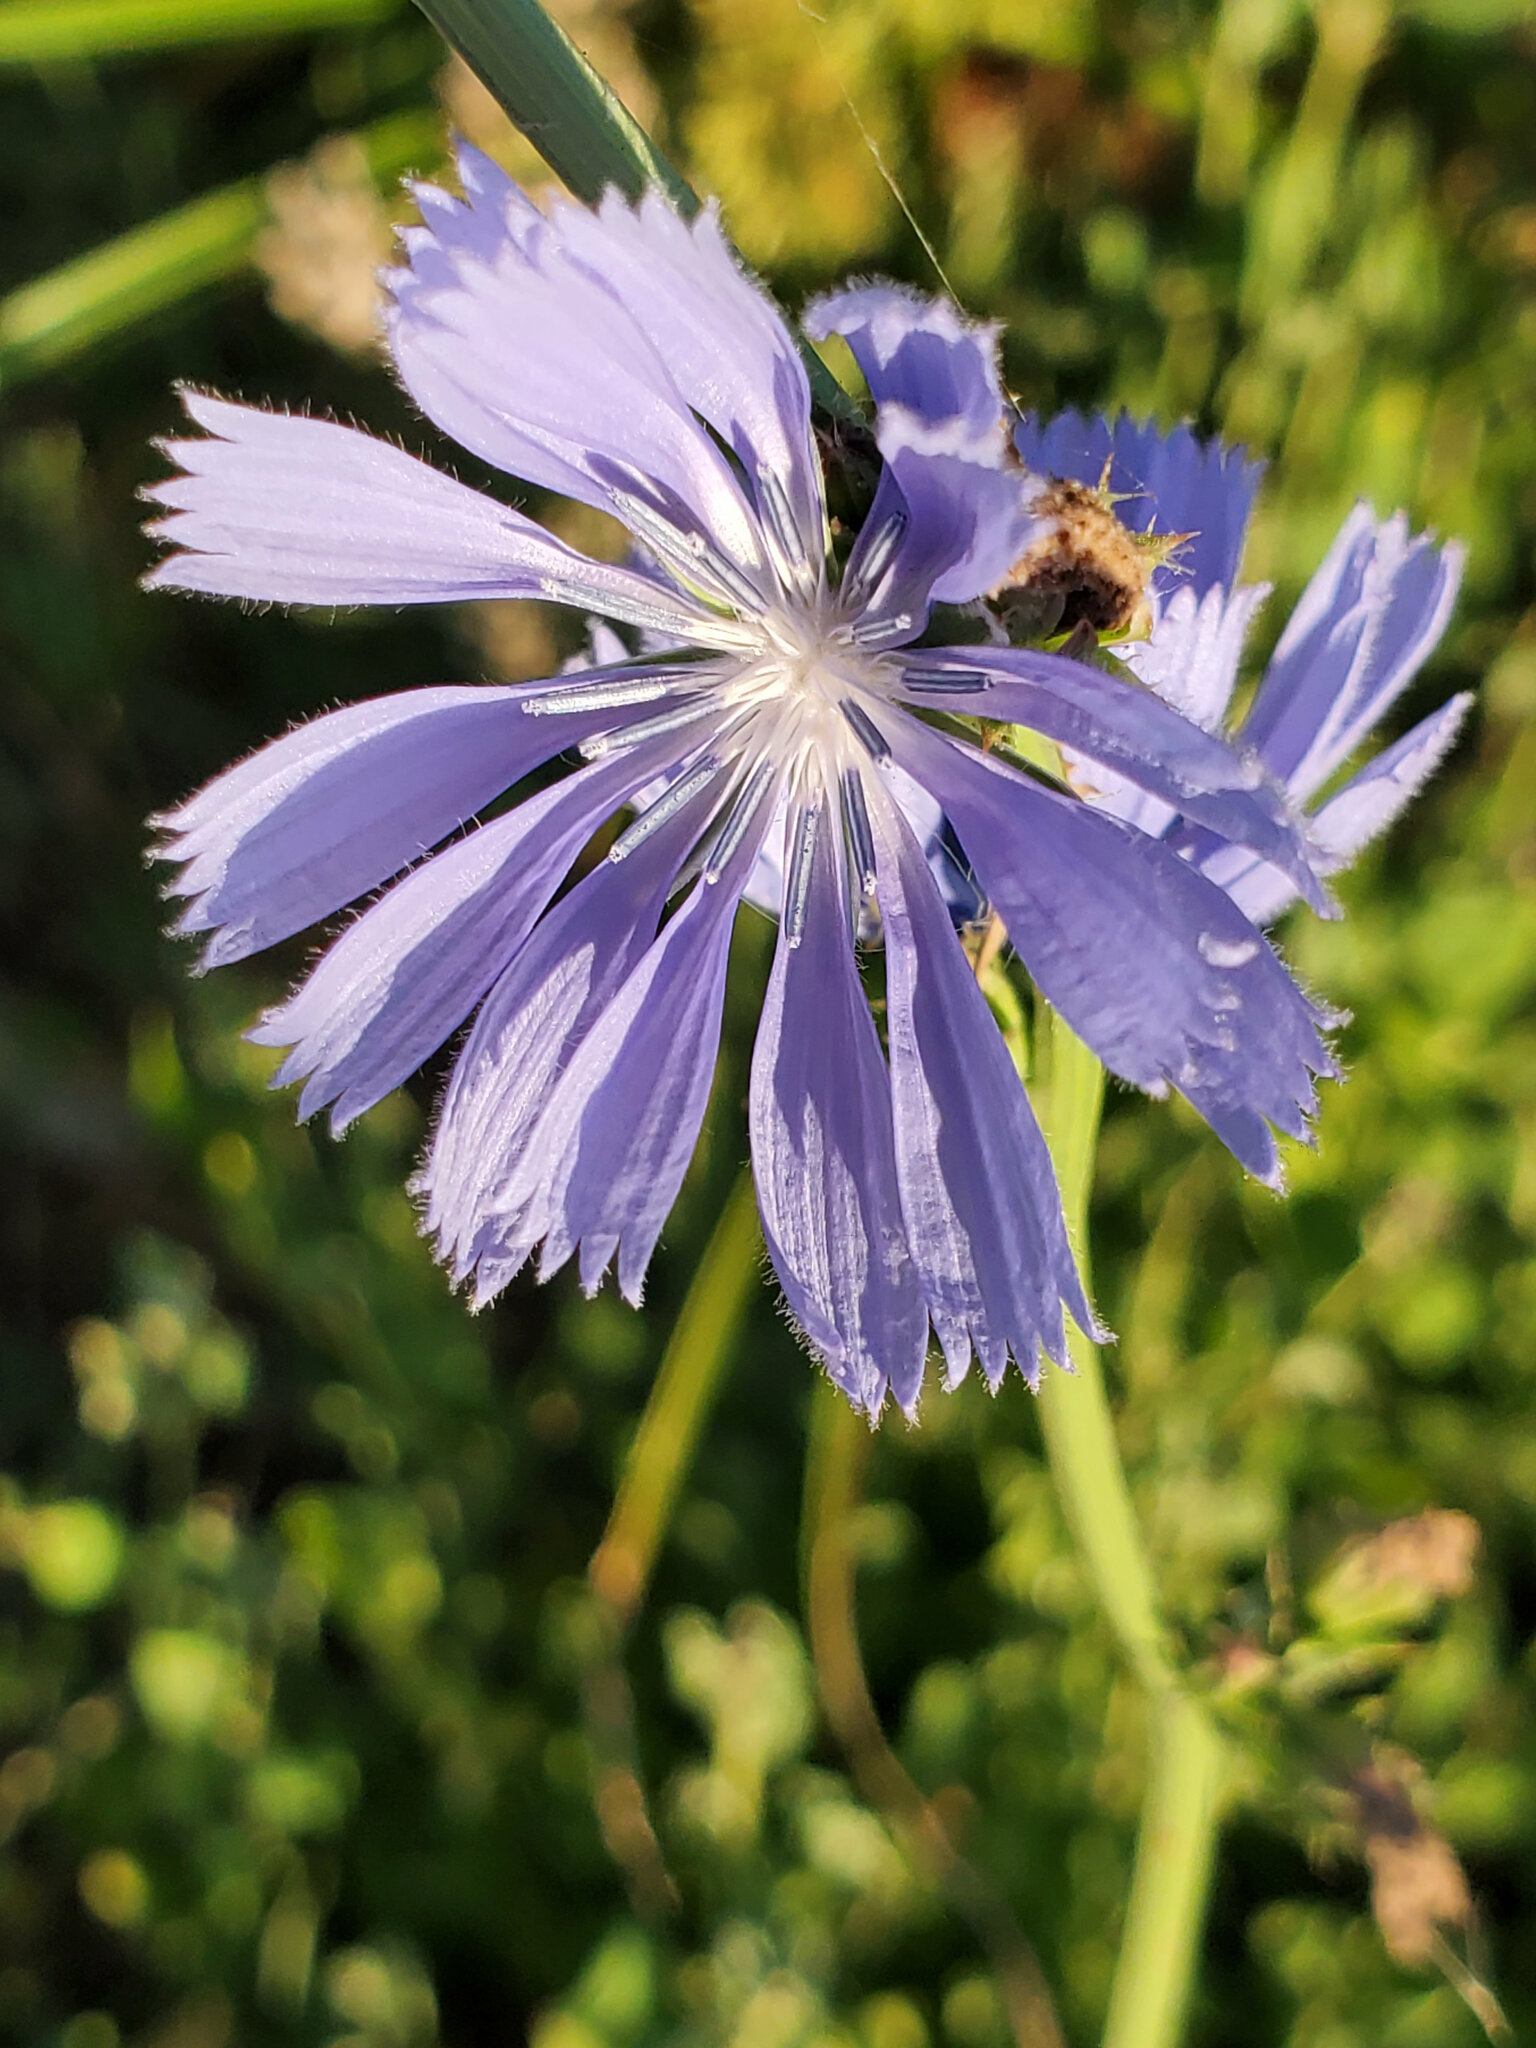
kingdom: Plantae
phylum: Tracheophyta
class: Magnoliopsida
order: Asterales
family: Asteraceae
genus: Cichorium
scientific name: Cichorium intybus
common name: Chicory
